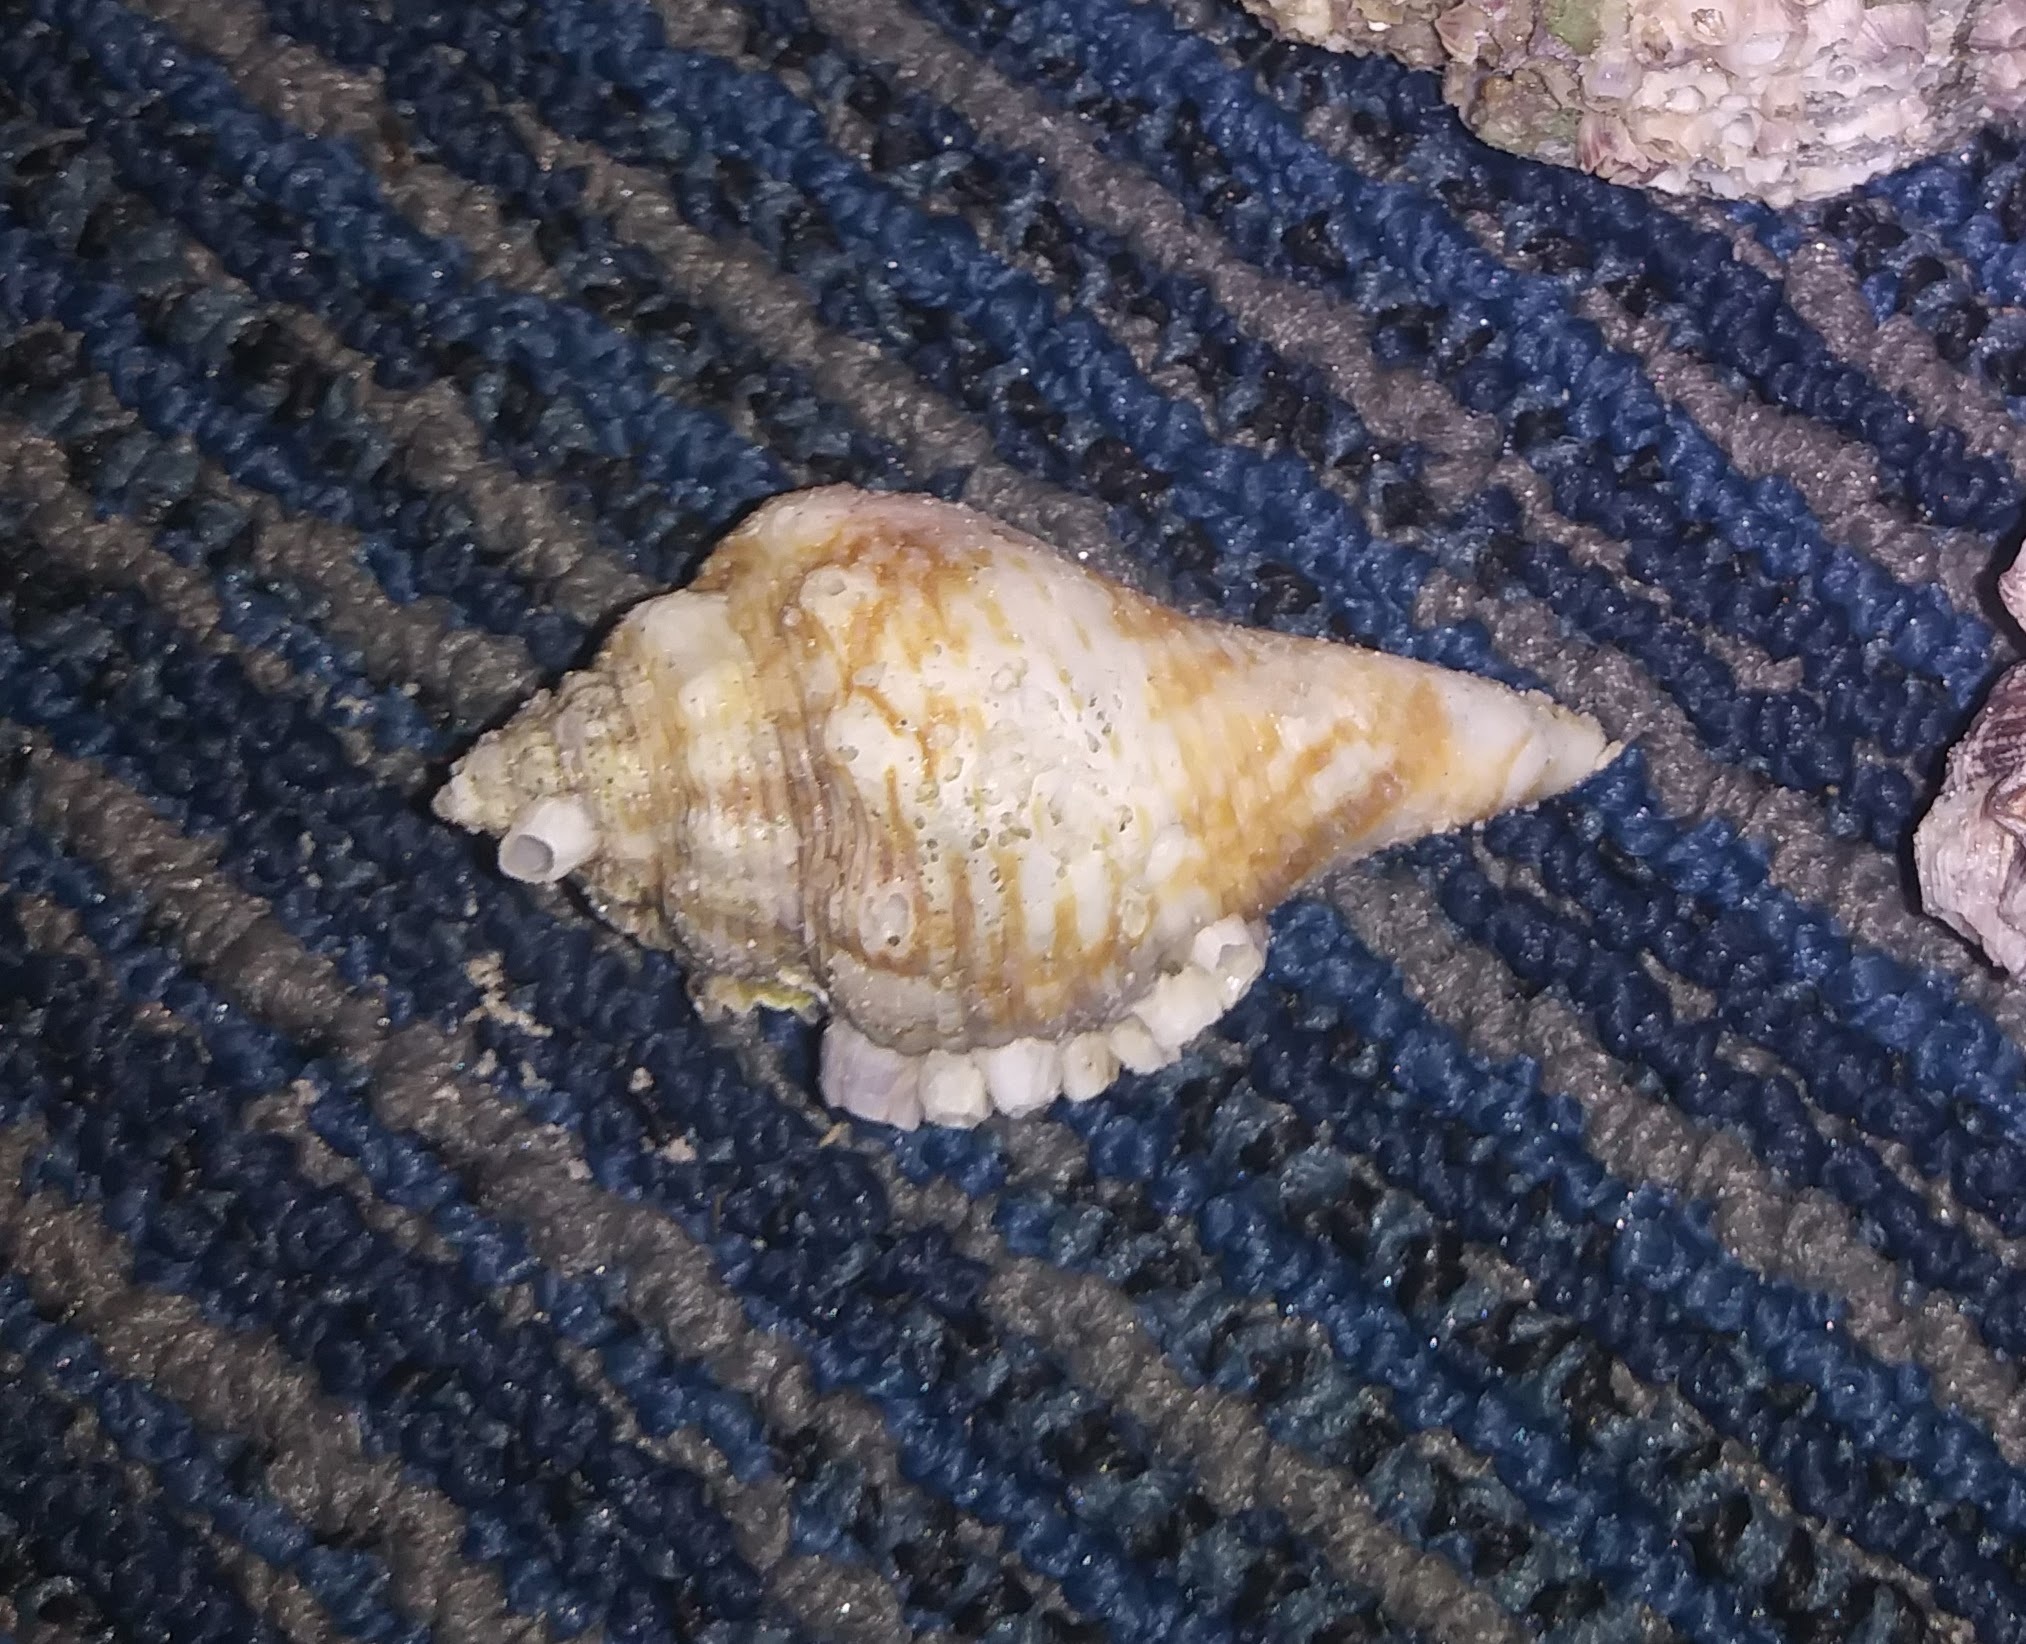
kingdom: Animalia
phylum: Mollusca
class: Gastropoda
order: Littorinimorpha
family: Strombidae
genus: Strombus
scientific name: Strombus alatus
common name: Florida fighting conch
